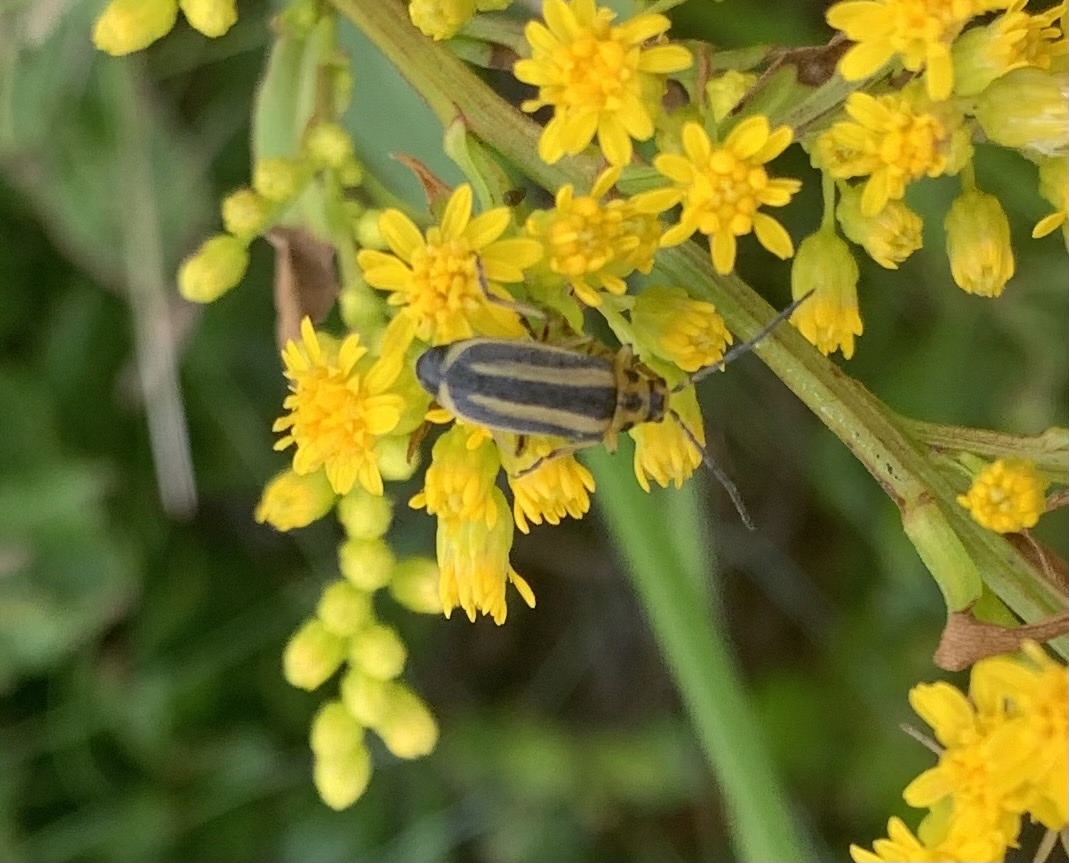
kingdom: Animalia
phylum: Arthropoda
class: Insecta
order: Coleoptera
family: Chrysomelidae
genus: Trirhabda
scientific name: Trirhabda canadensis
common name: Goldenrod leaf beetle
